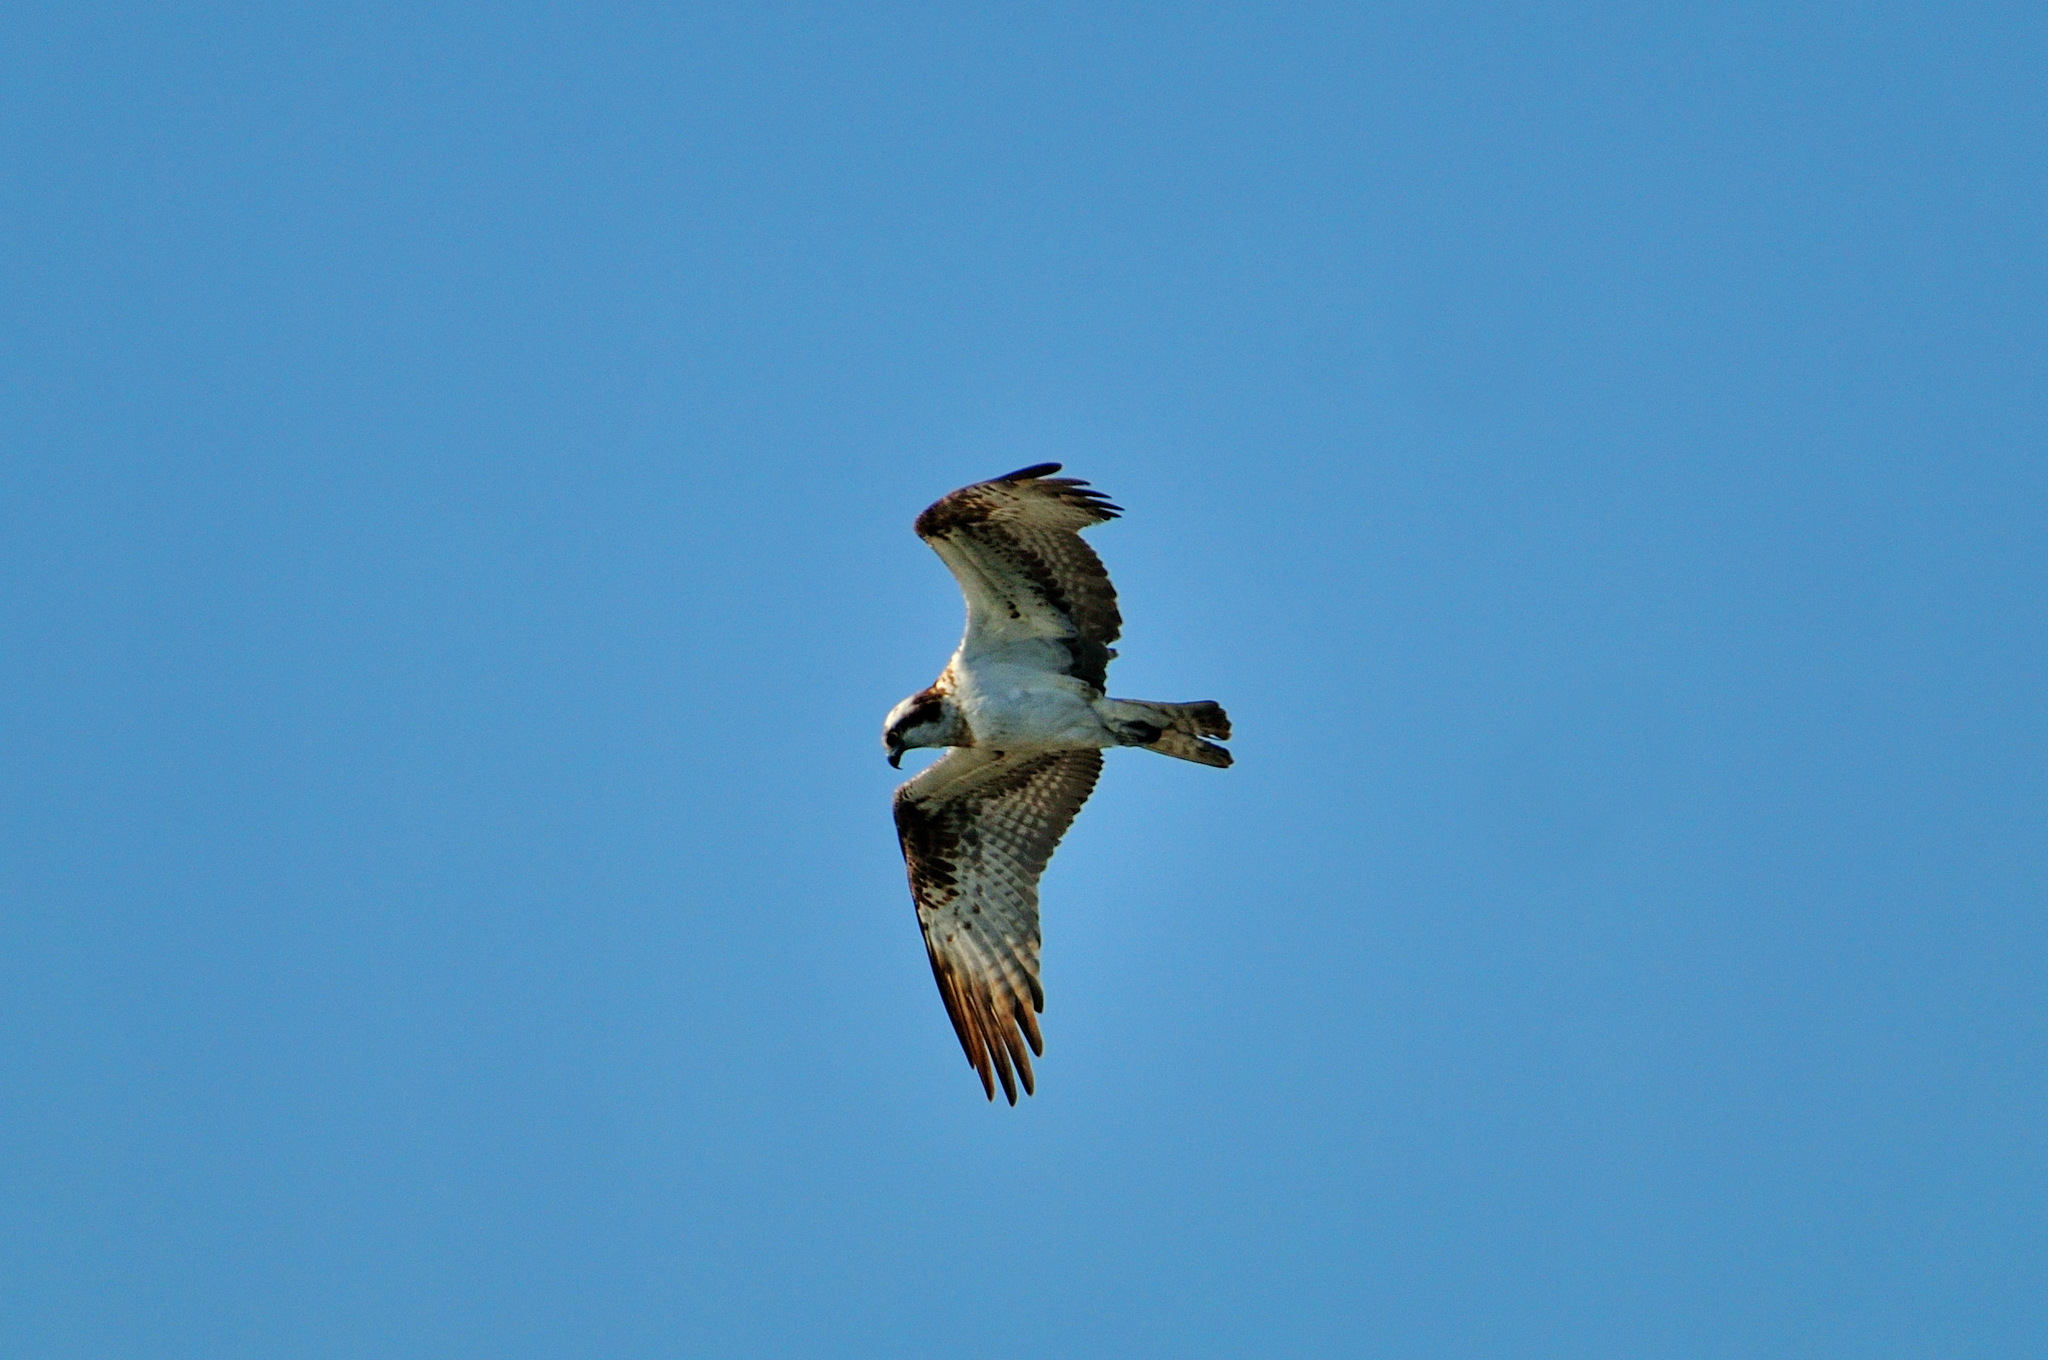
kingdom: Animalia
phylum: Chordata
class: Aves
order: Accipitriformes
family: Pandionidae
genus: Pandion
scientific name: Pandion haliaetus
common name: Osprey
